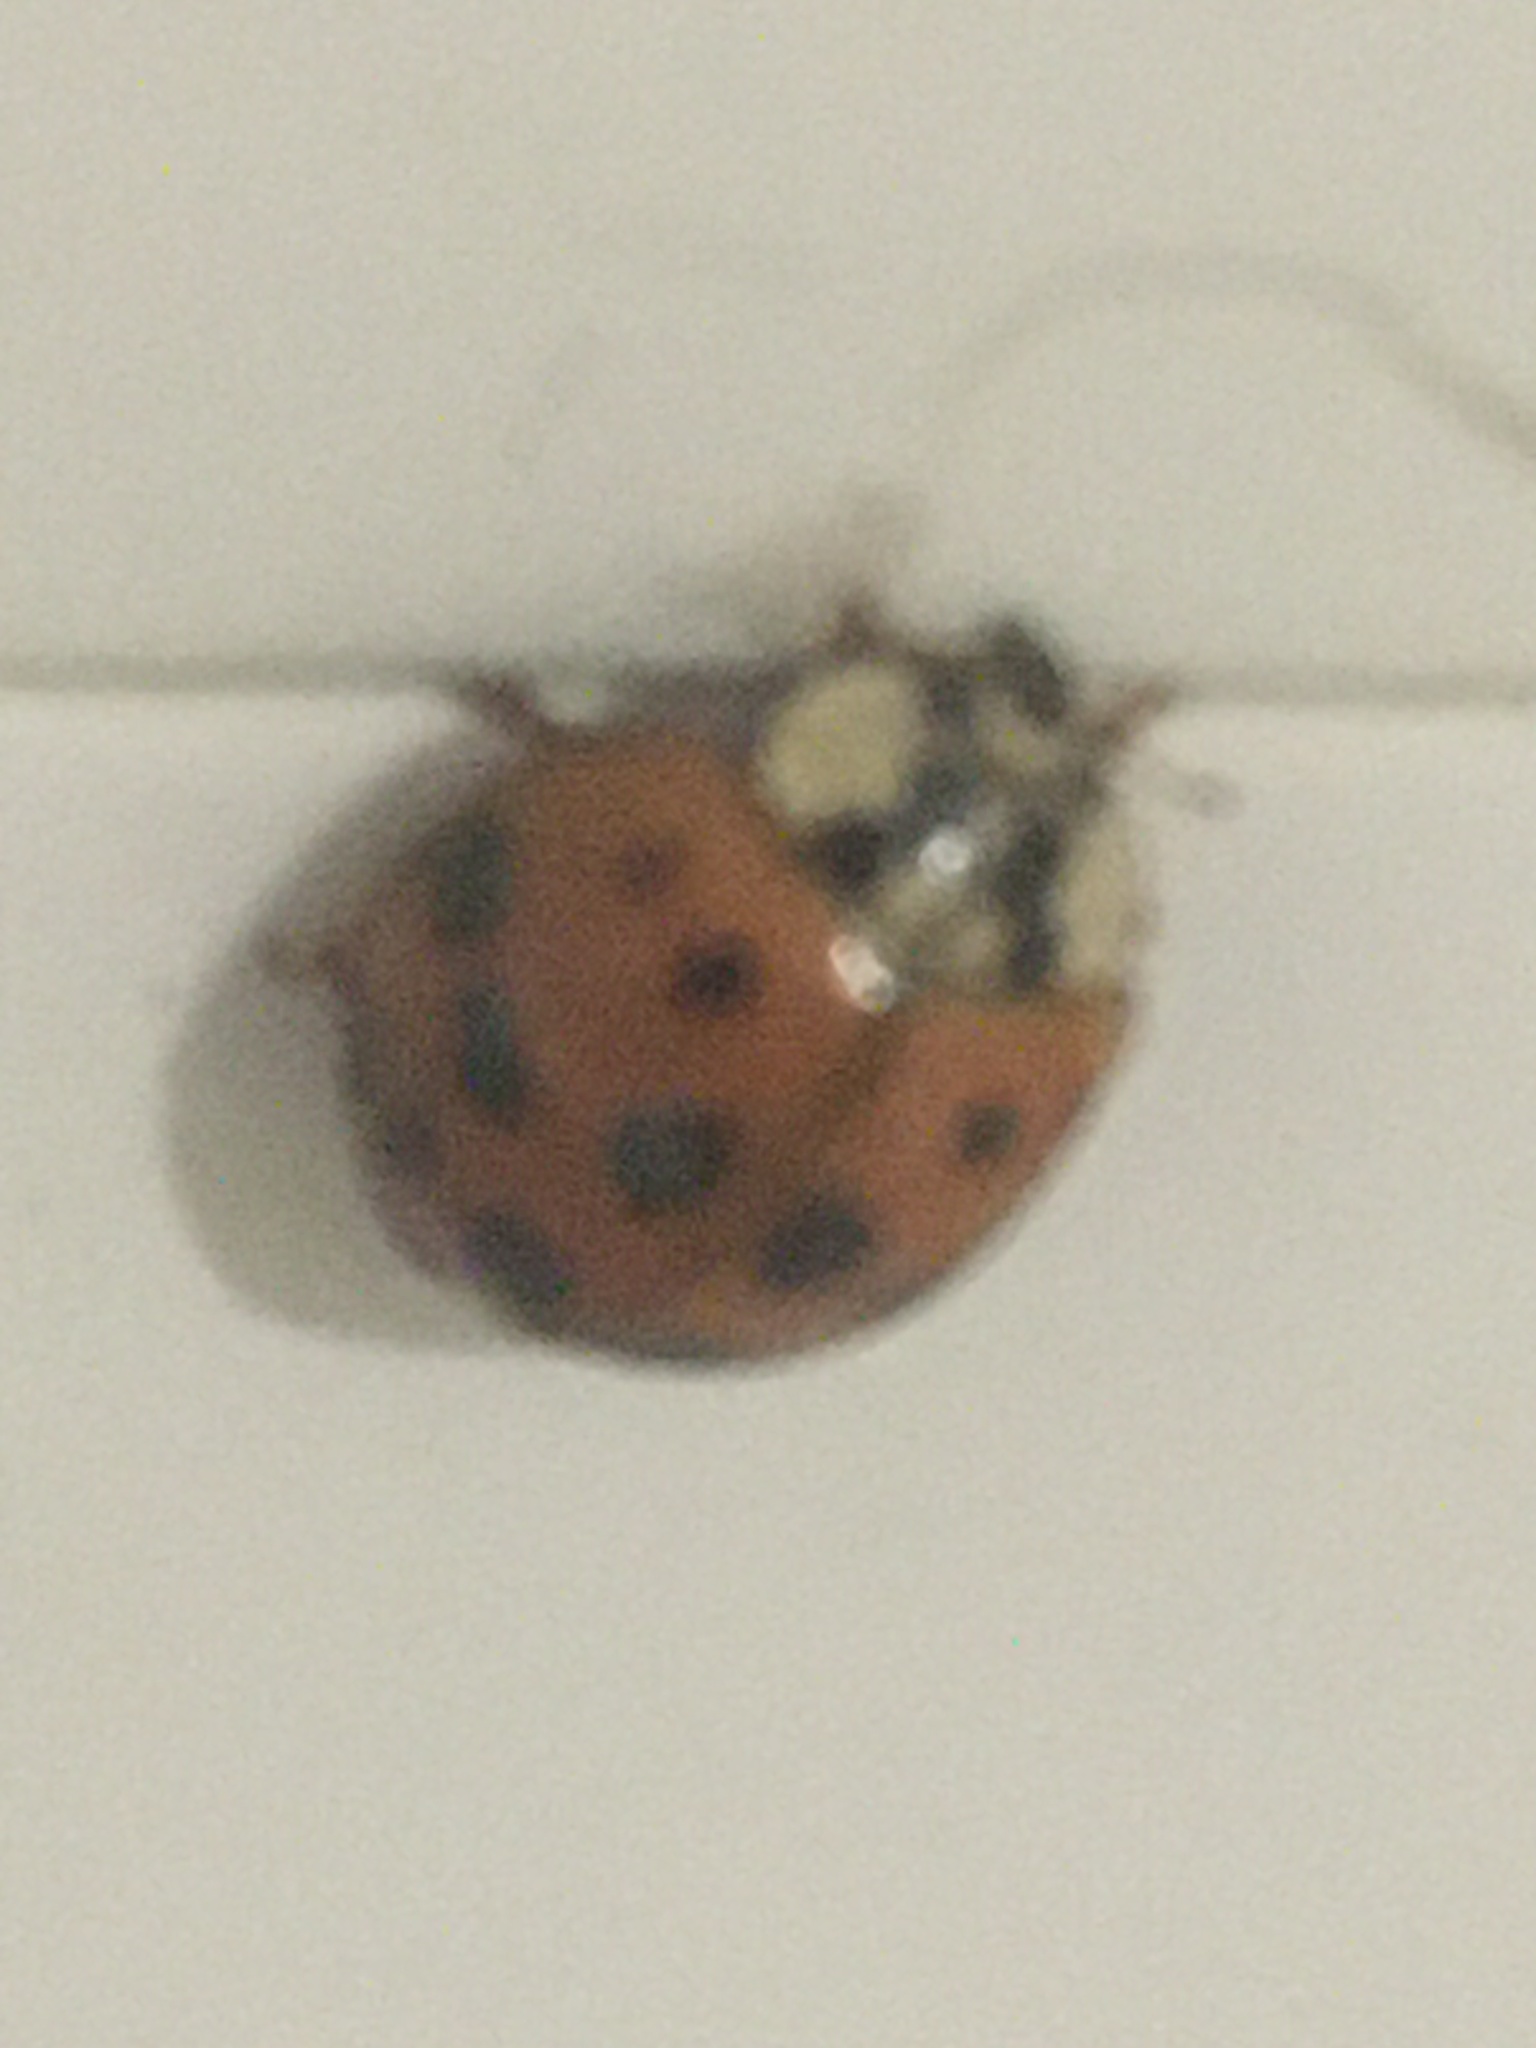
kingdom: Animalia
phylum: Arthropoda
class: Insecta
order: Coleoptera
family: Coccinellidae
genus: Harmonia
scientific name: Harmonia axyridis
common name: Harlequin ladybird
